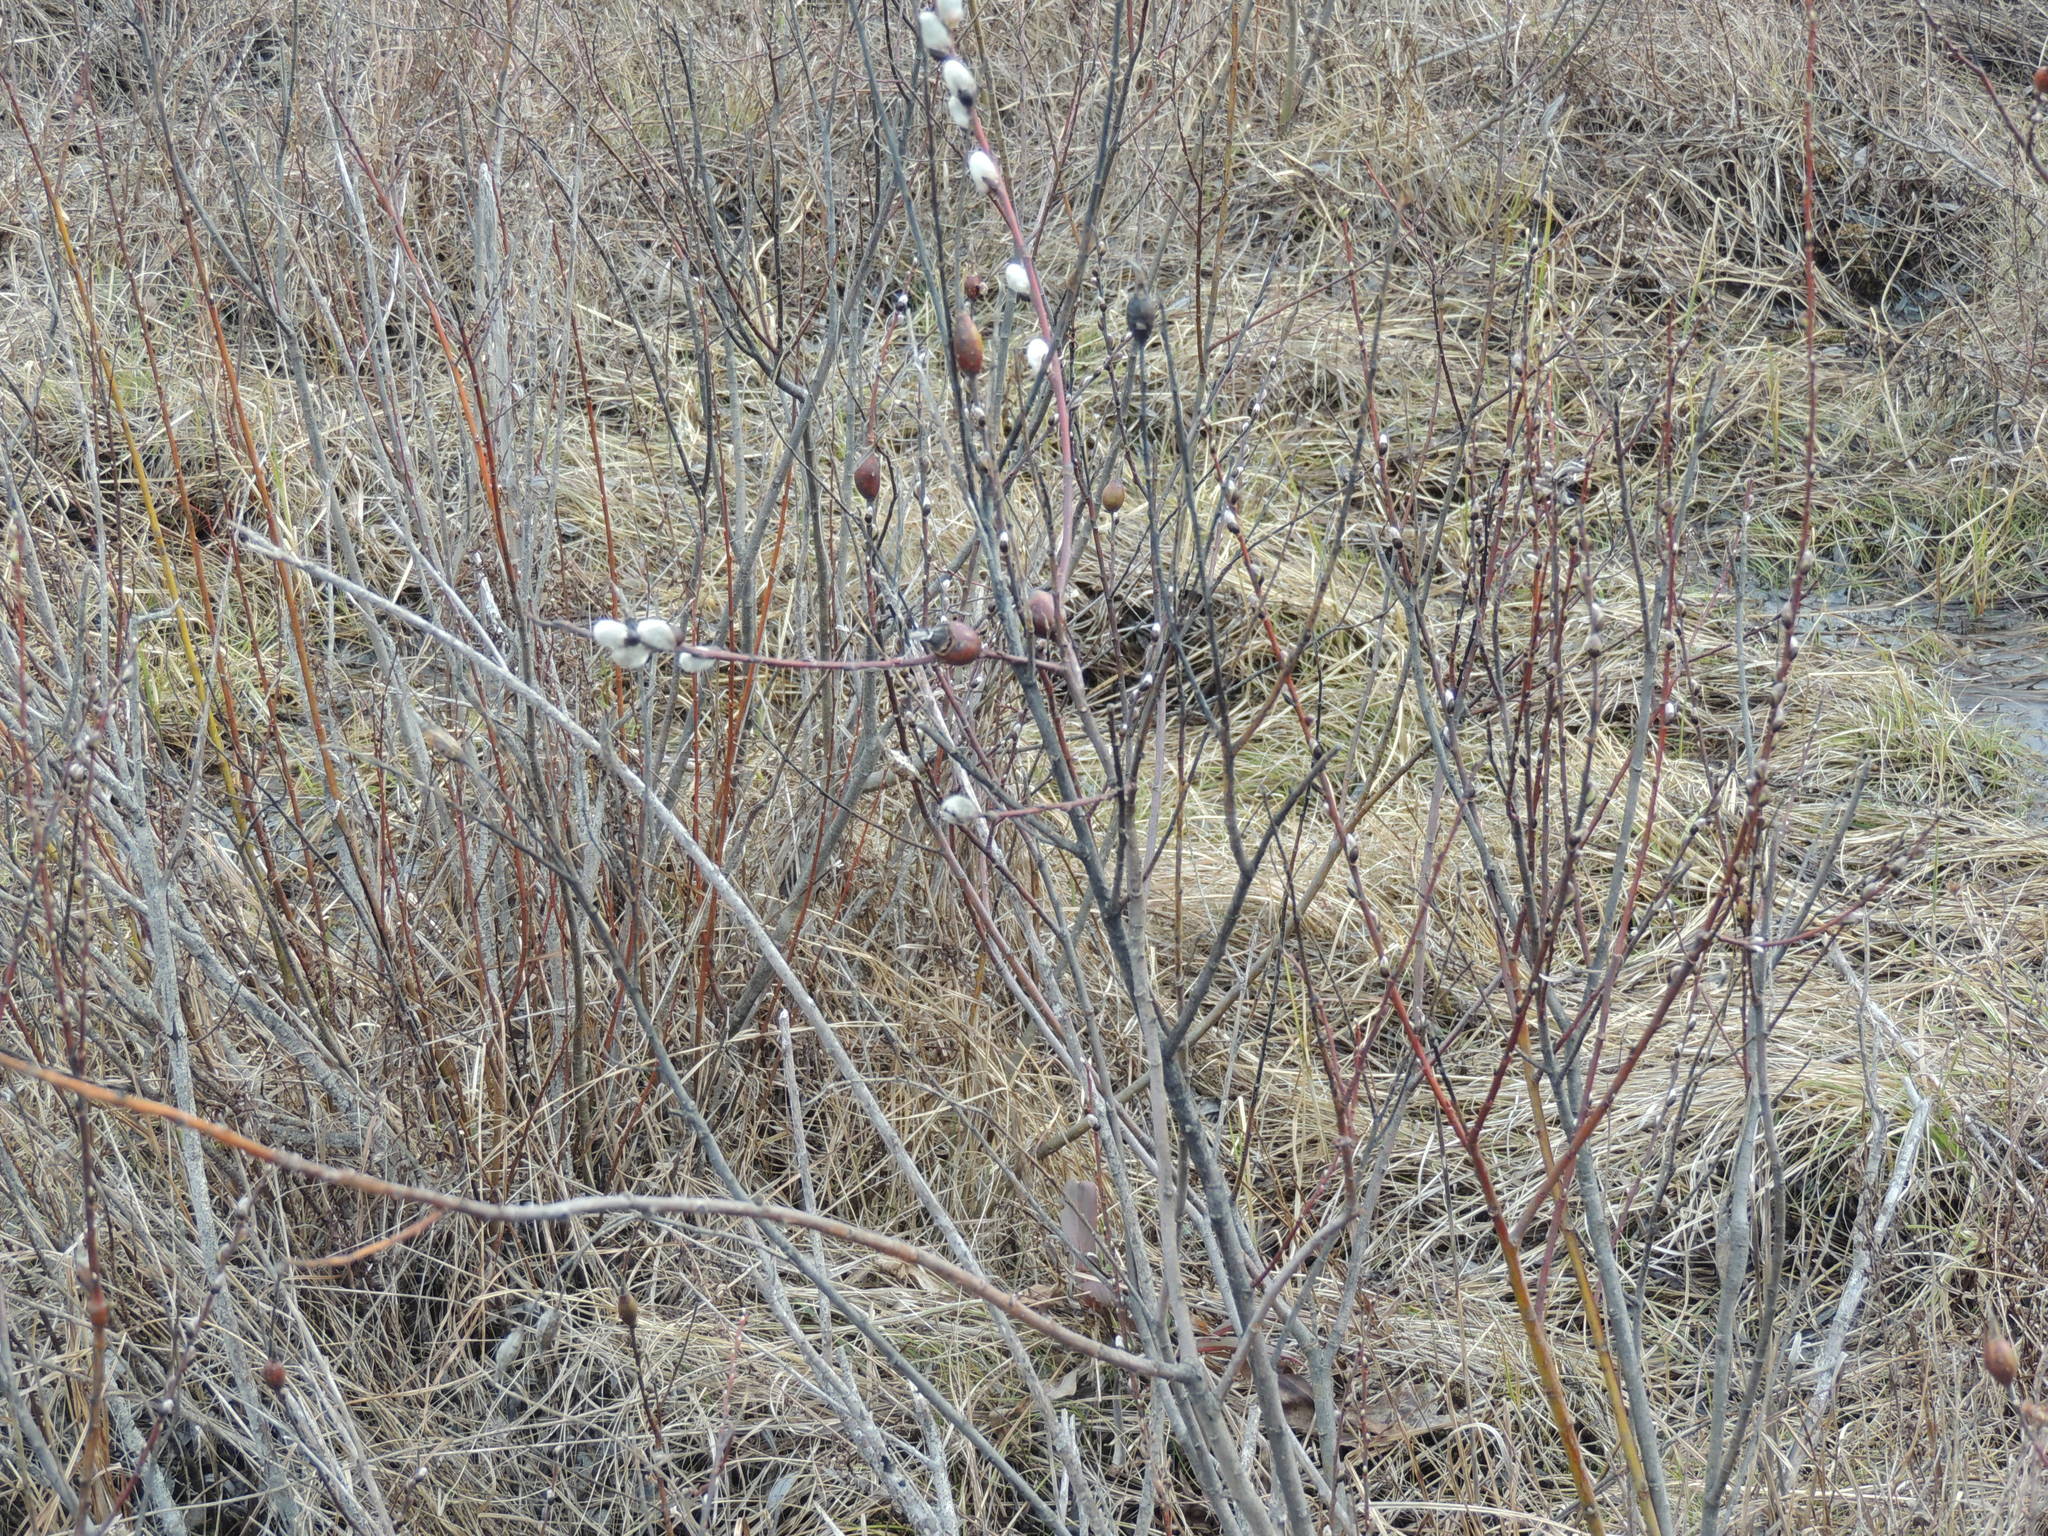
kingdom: Plantae
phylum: Tracheophyta
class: Magnoliopsida
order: Malpighiales
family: Salicaceae
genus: Salix
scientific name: Salix discolor
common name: Glaucous willow
